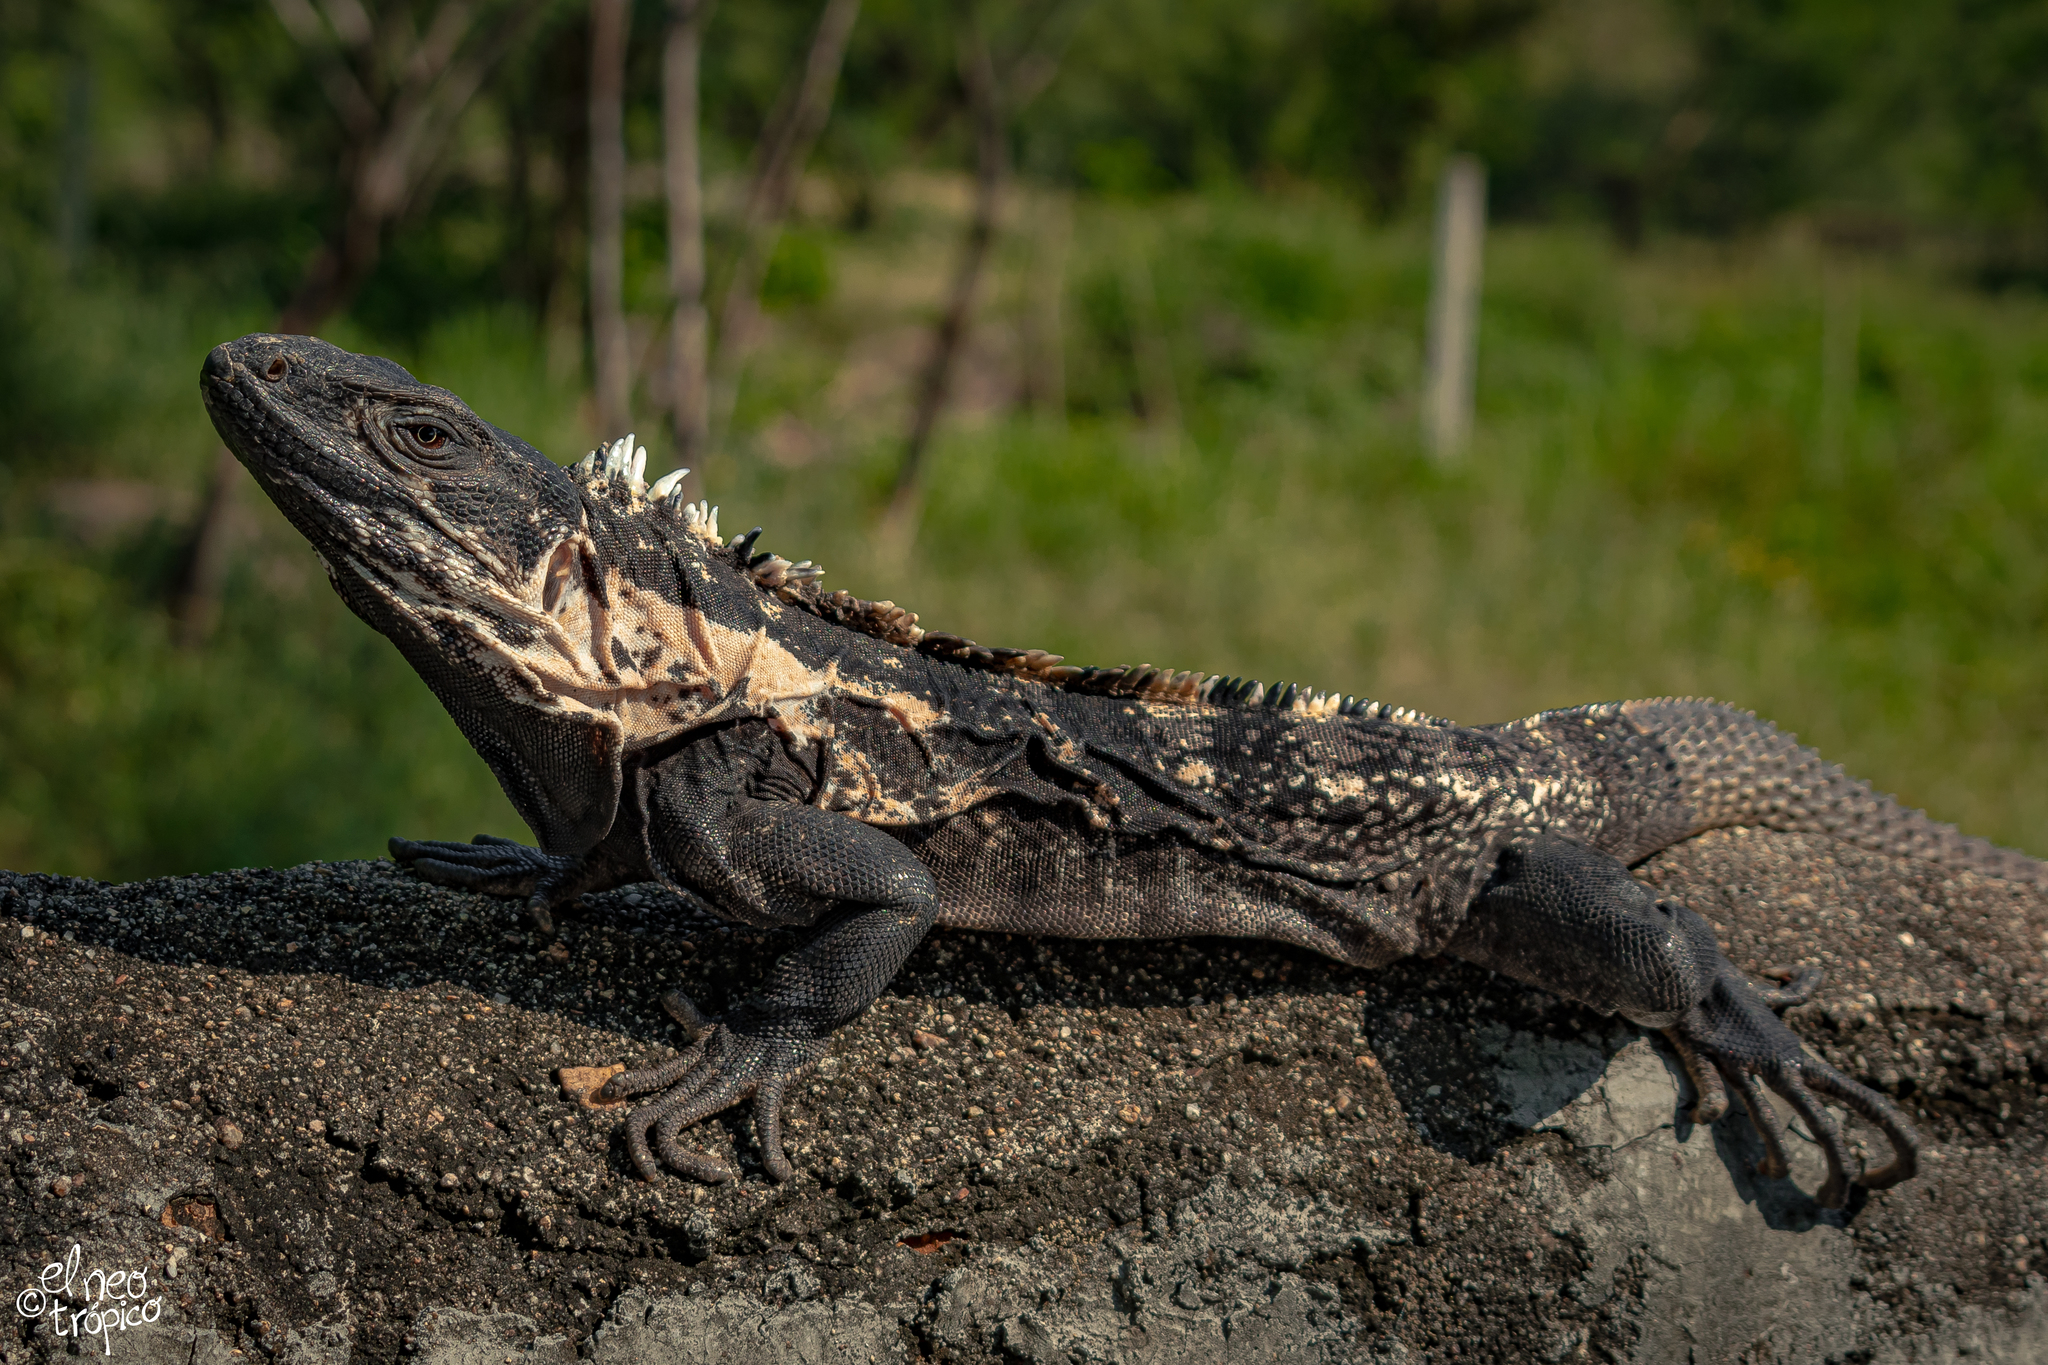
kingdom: Animalia
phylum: Chordata
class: Squamata
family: Iguanidae
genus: Ctenosaura
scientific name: Ctenosaura pectinata
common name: Guerreran spiny-tailed iguana
